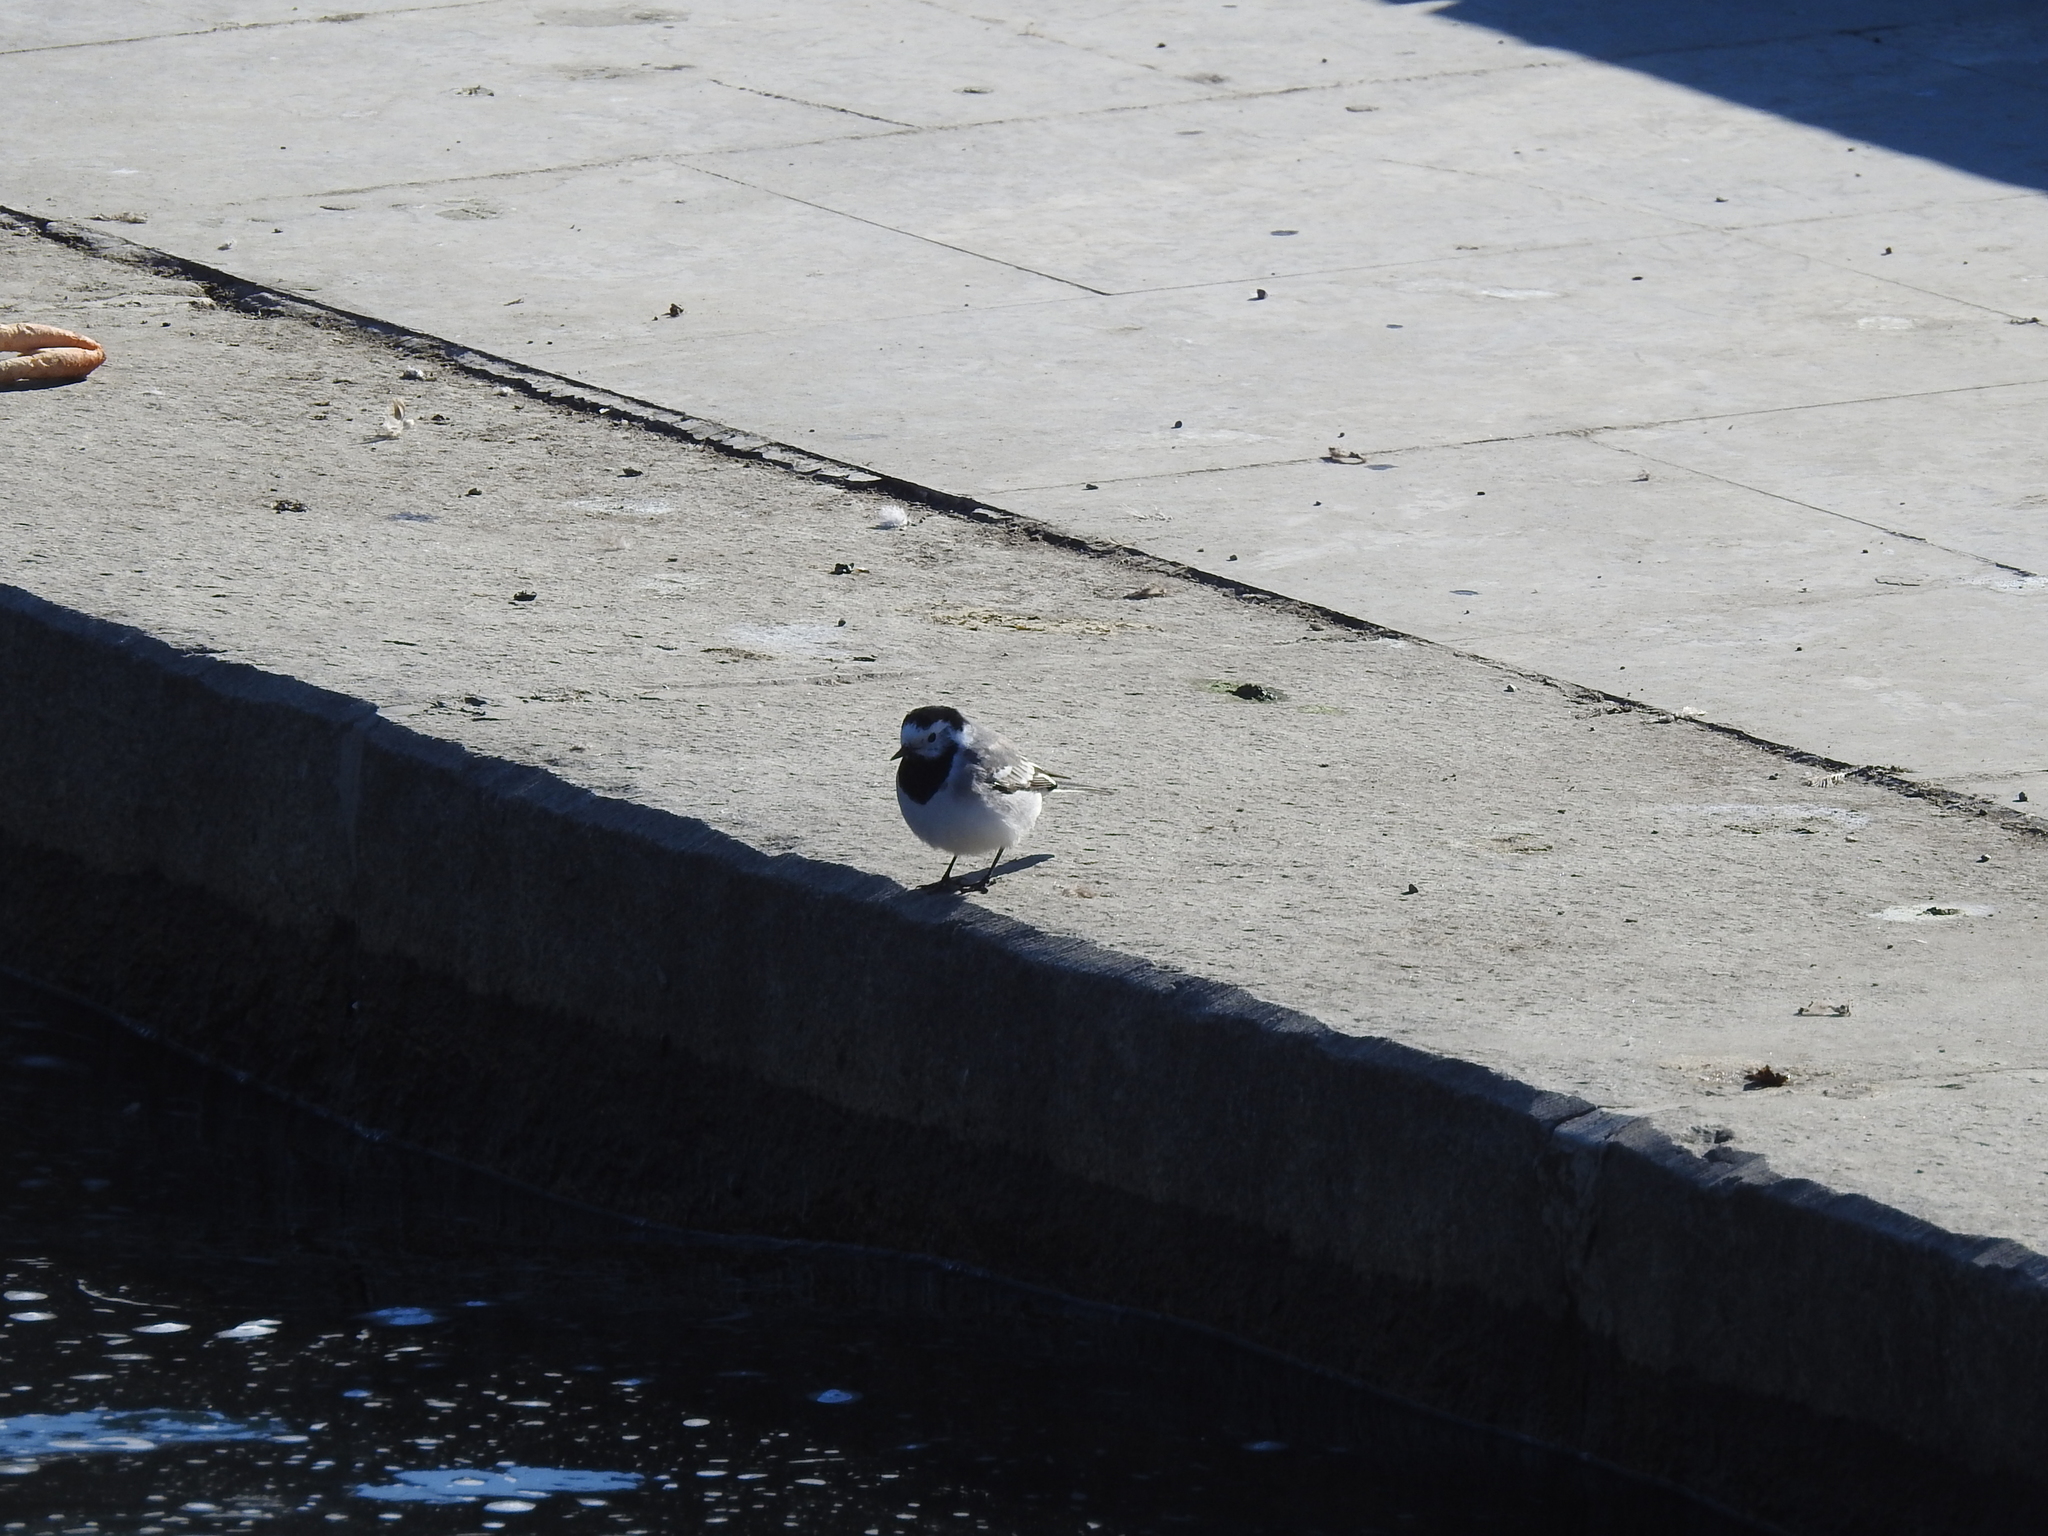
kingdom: Animalia
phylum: Chordata
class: Aves
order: Passeriformes
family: Motacillidae
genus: Motacilla
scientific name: Motacilla alba
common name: White wagtail
